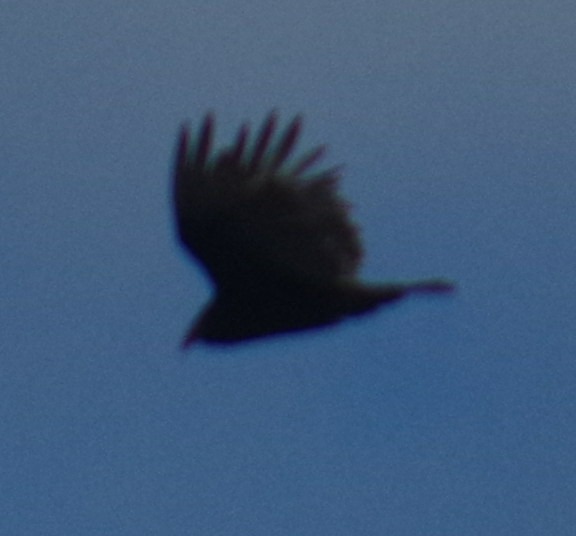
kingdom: Animalia
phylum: Chordata
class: Aves
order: Passeriformes
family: Corvidae
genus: Corvus
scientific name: Corvus brachyrhynchos
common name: American crow
